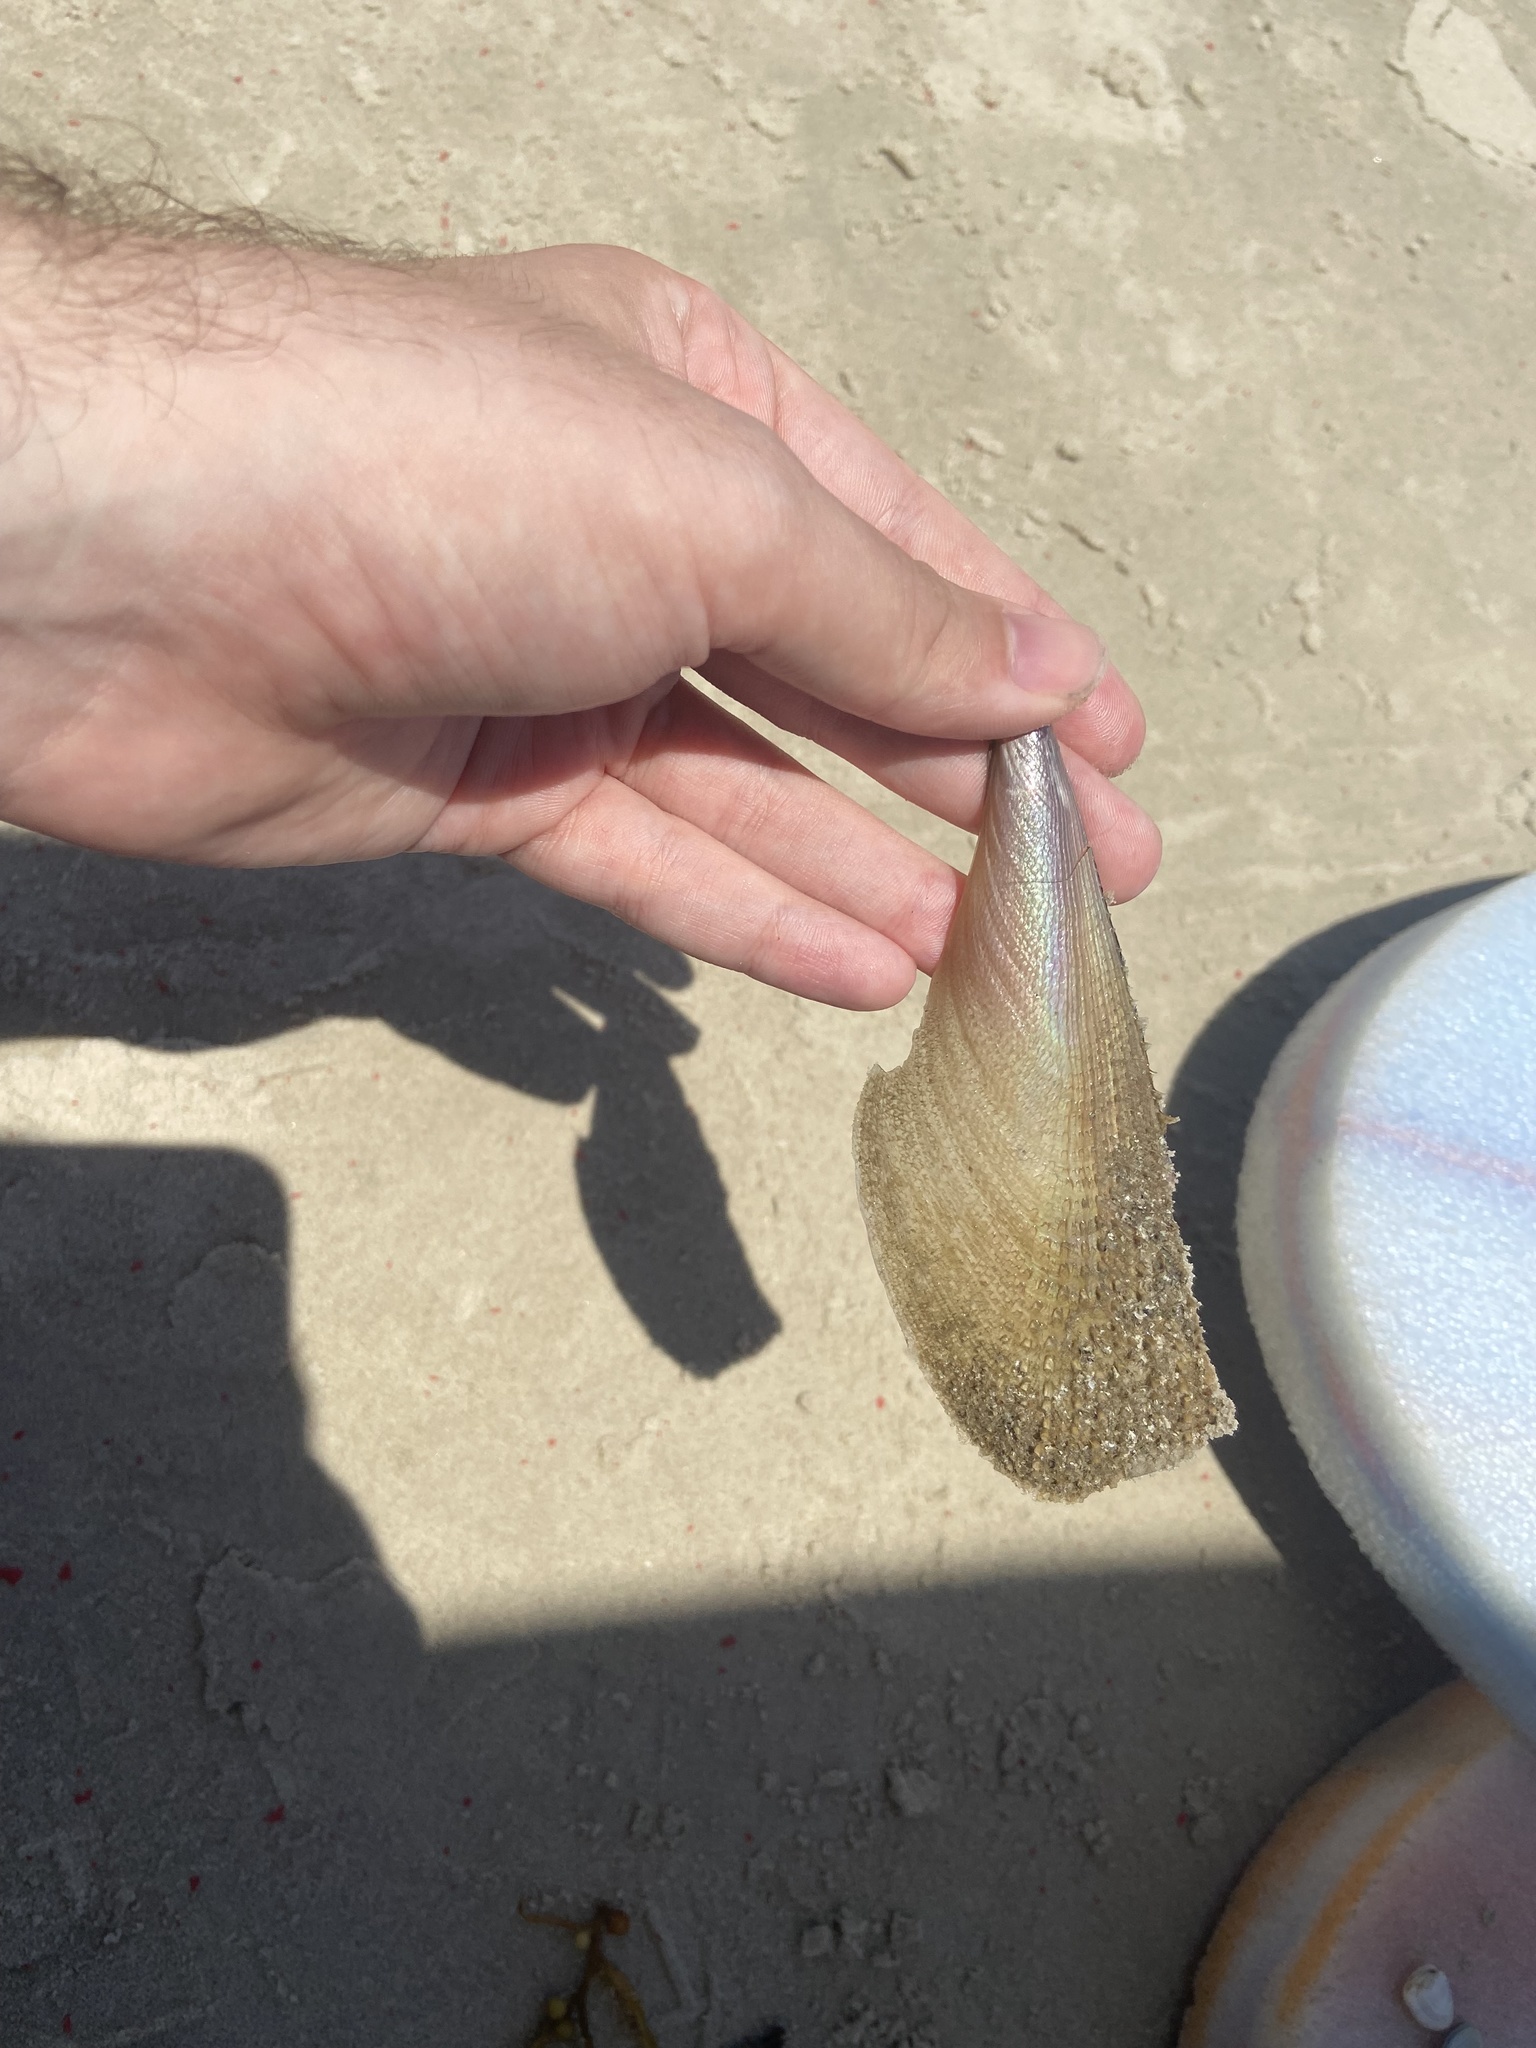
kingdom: Animalia
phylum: Mollusca
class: Bivalvia
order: Ostreida
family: Pinnidae
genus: Atrina
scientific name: Atrina serrata
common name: Saw-toothed penshell
